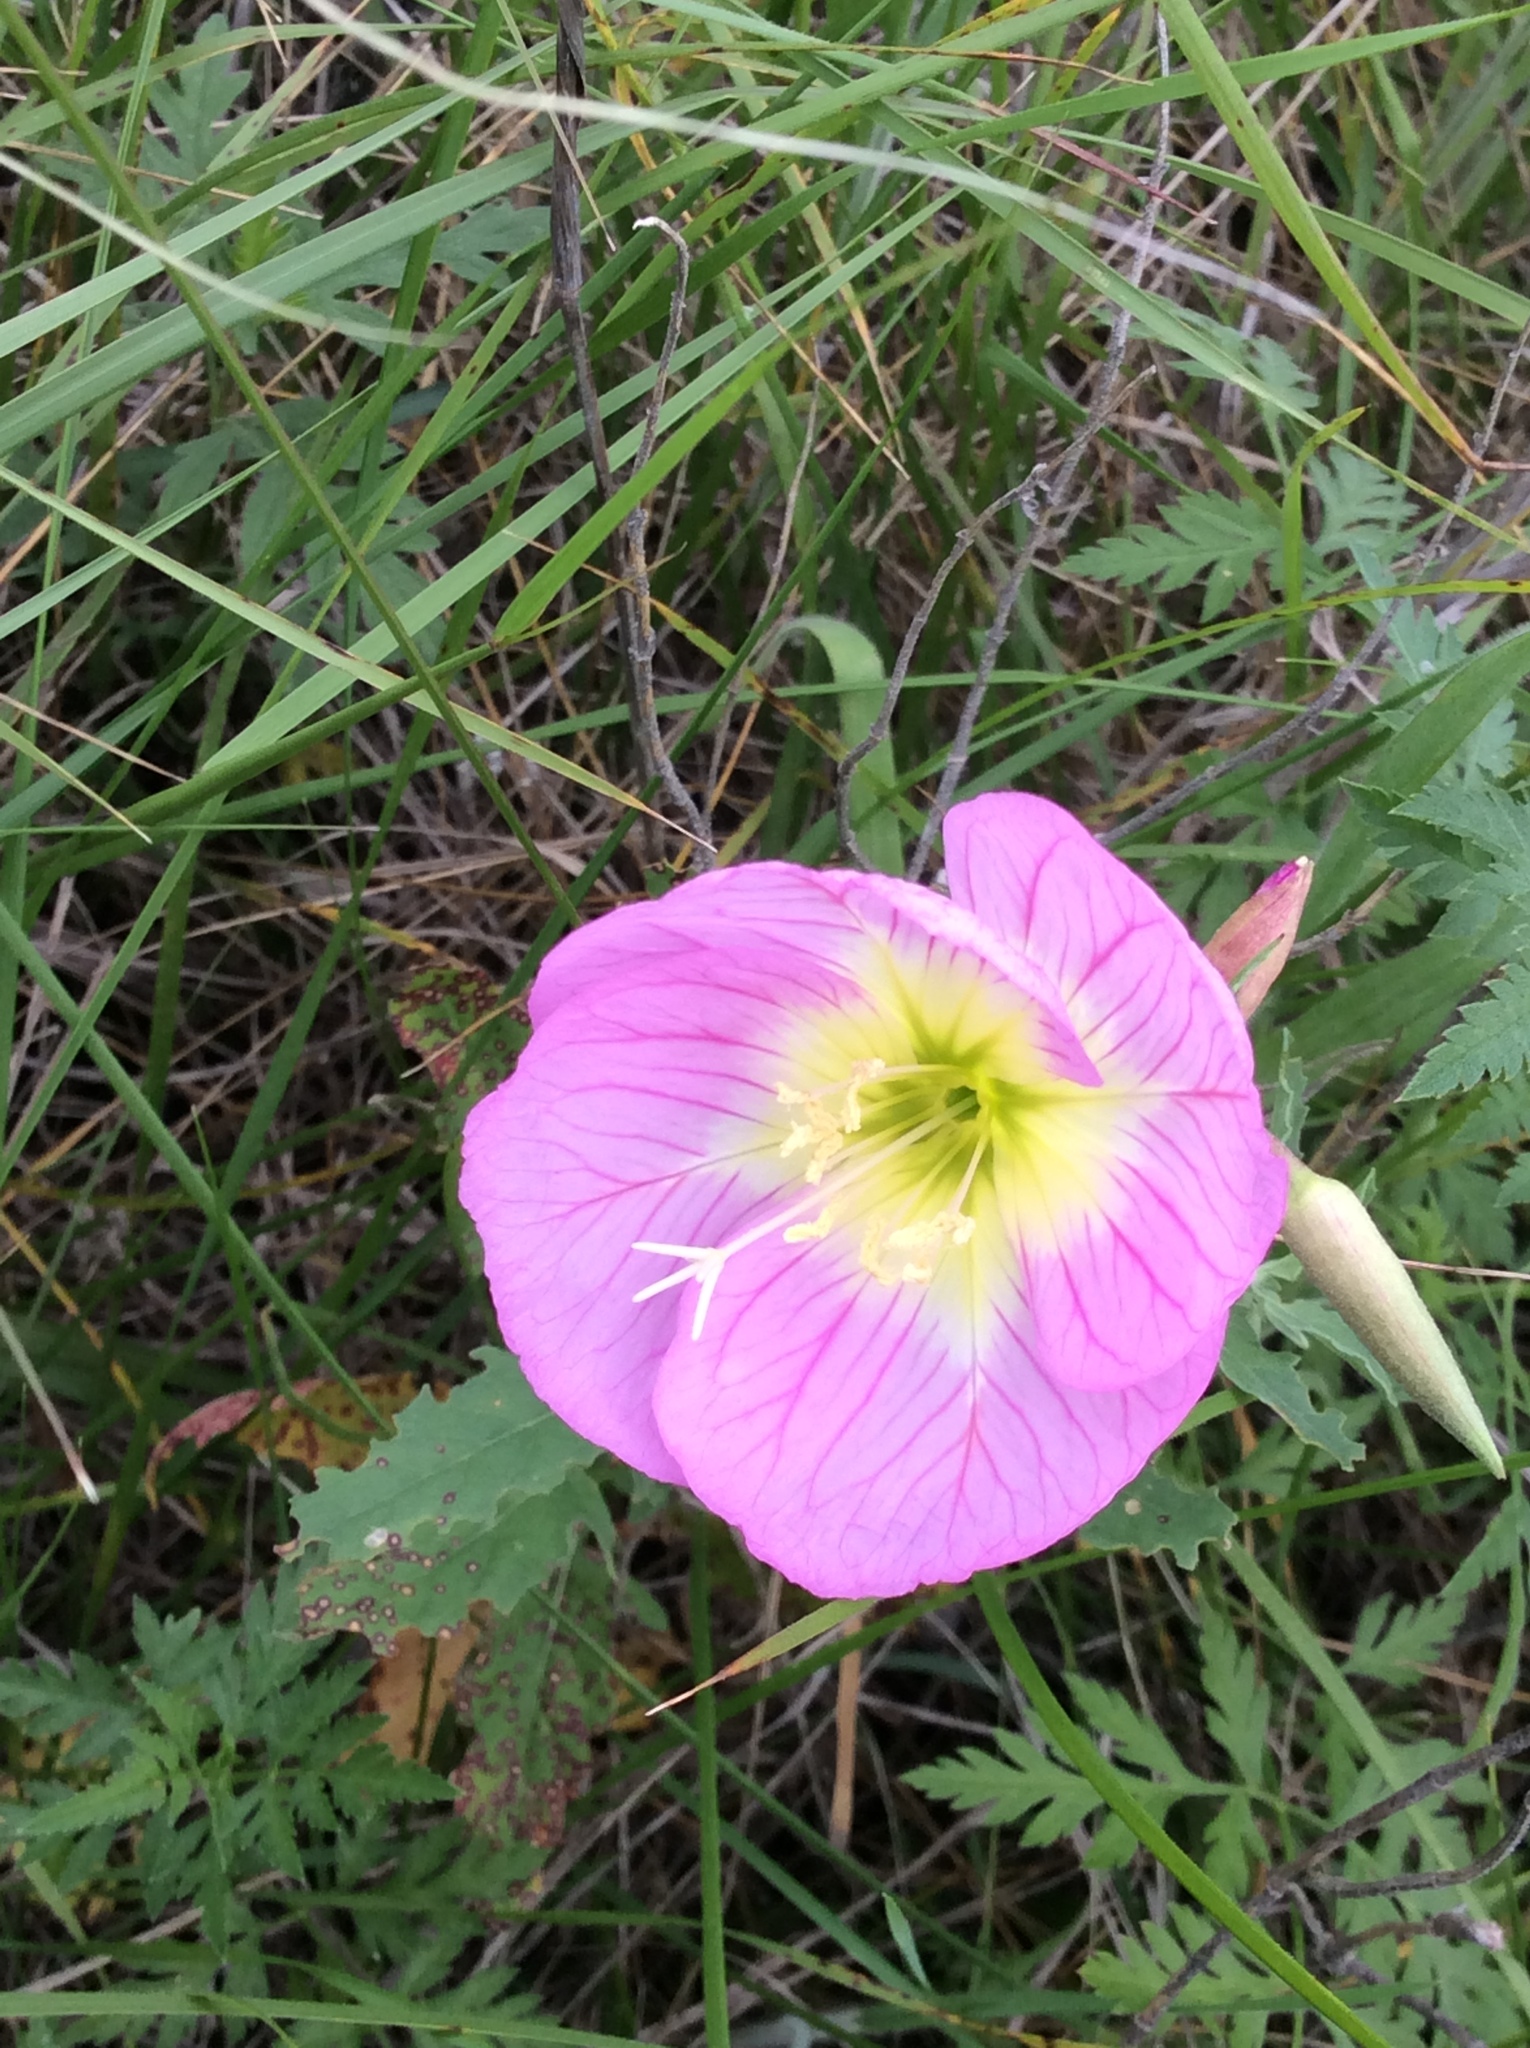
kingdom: Plantae
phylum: Tracheophyta
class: Magnoliopsida
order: Myrtales
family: Onagraceae
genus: Oenothera
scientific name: Oenothera speciosa
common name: White evening-primrose
